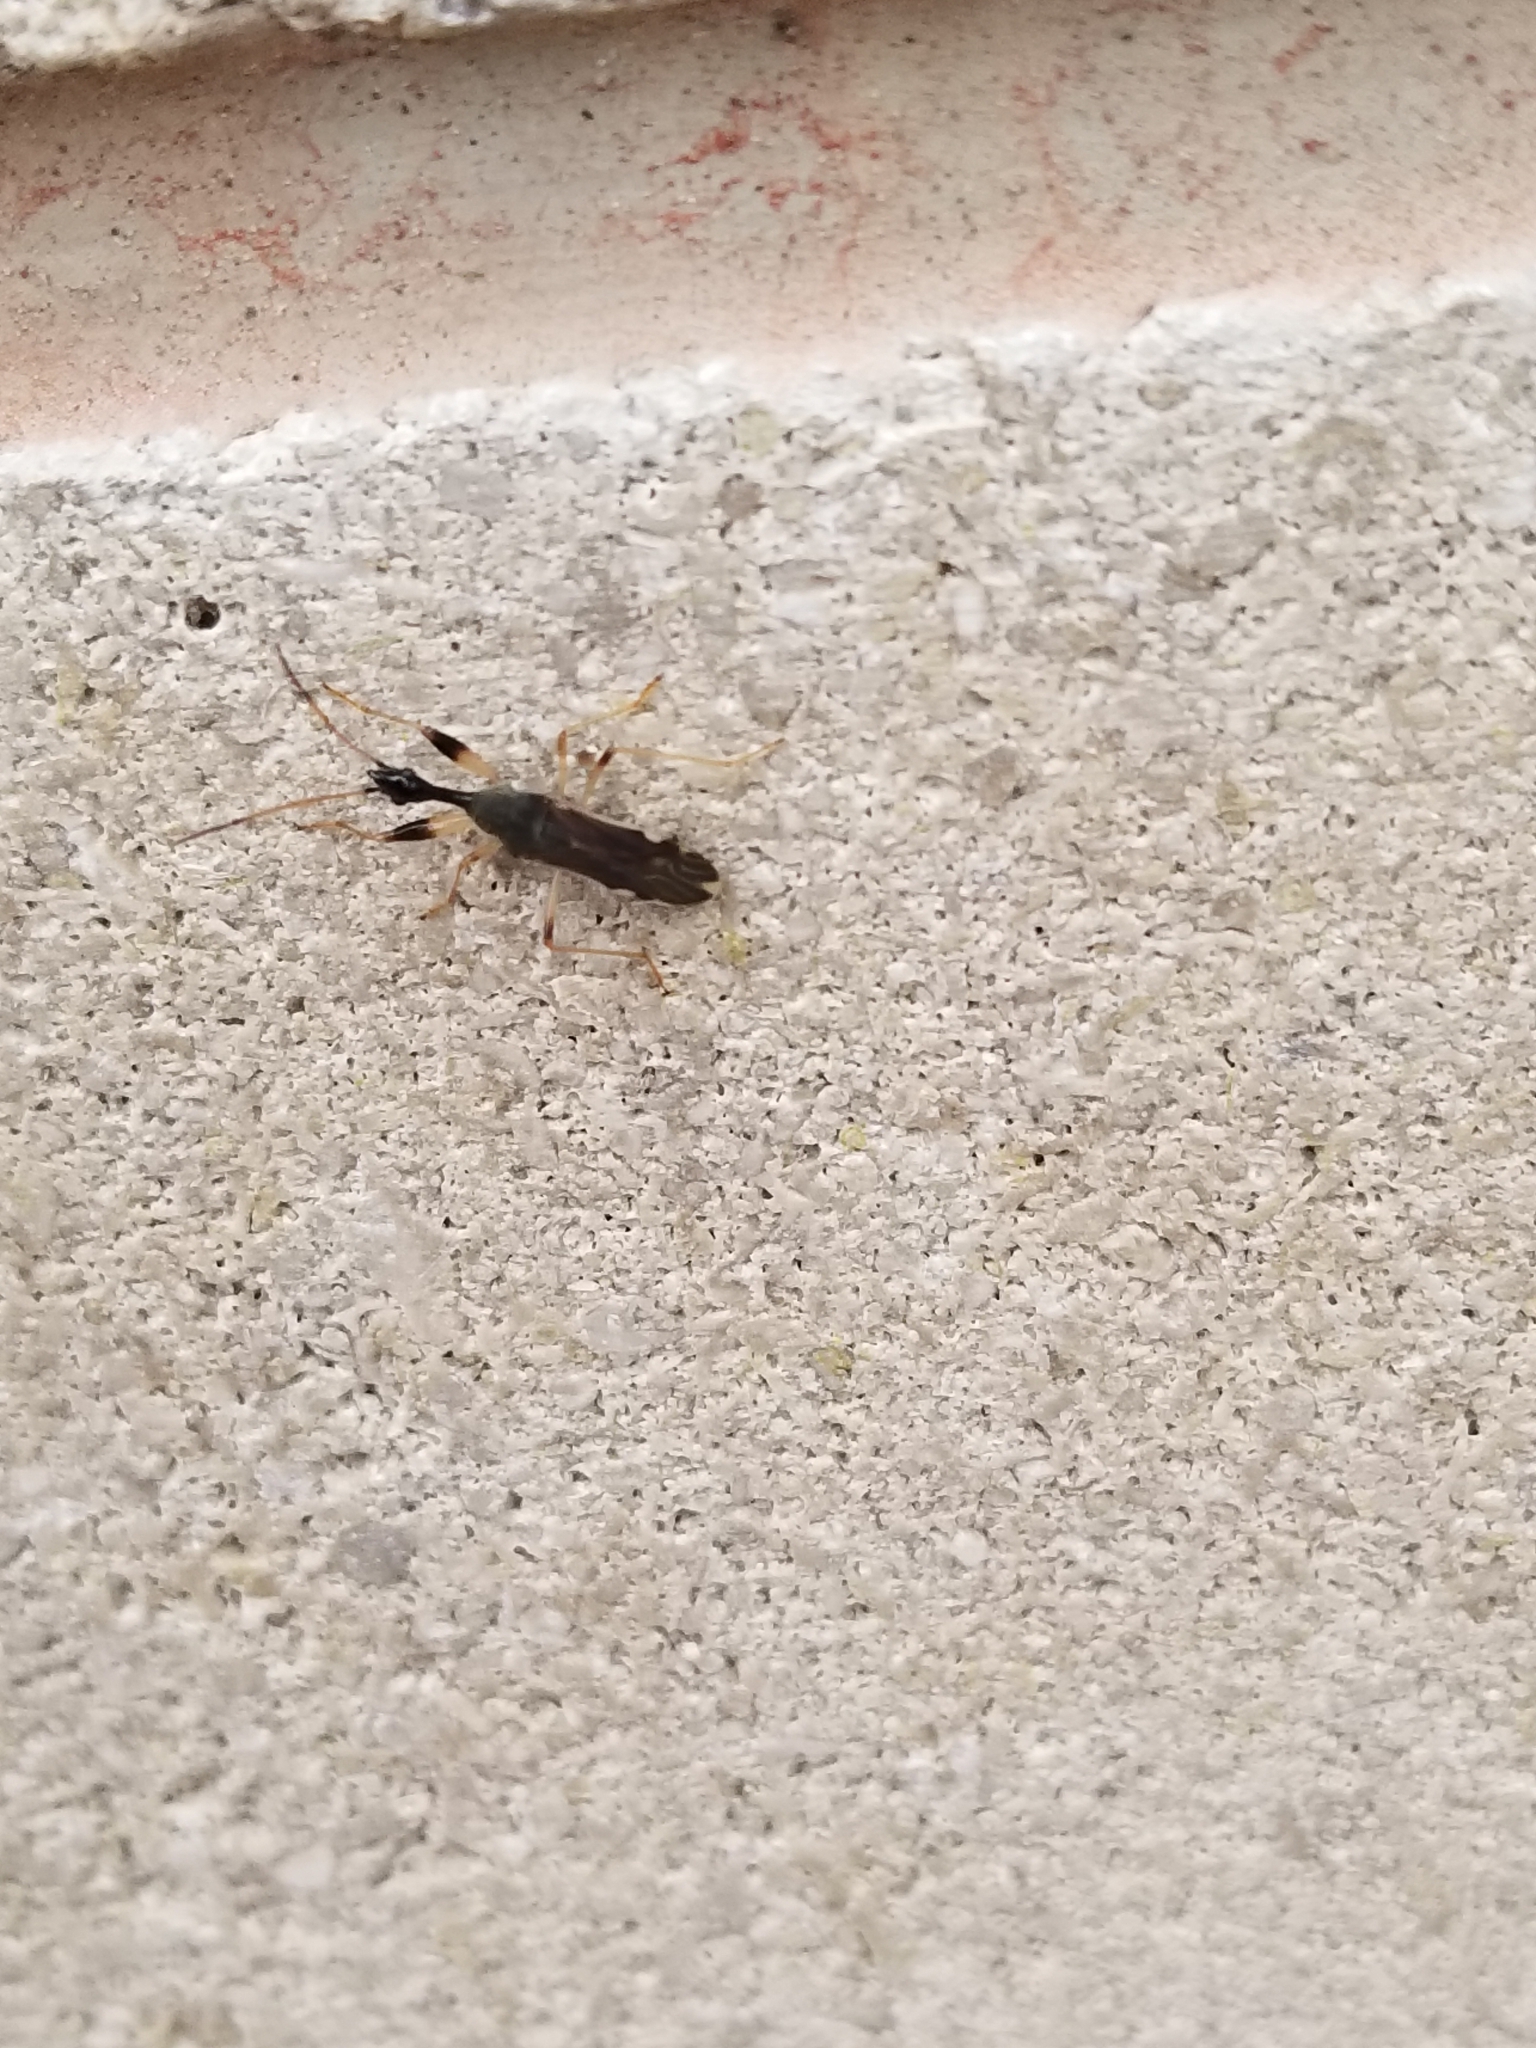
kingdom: Animalia
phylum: Arthropoda
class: Insecta
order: Hemiptera
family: Rhyparochromidae
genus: Myodocha
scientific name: Myodocha serripes
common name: Long-necked seed bug
